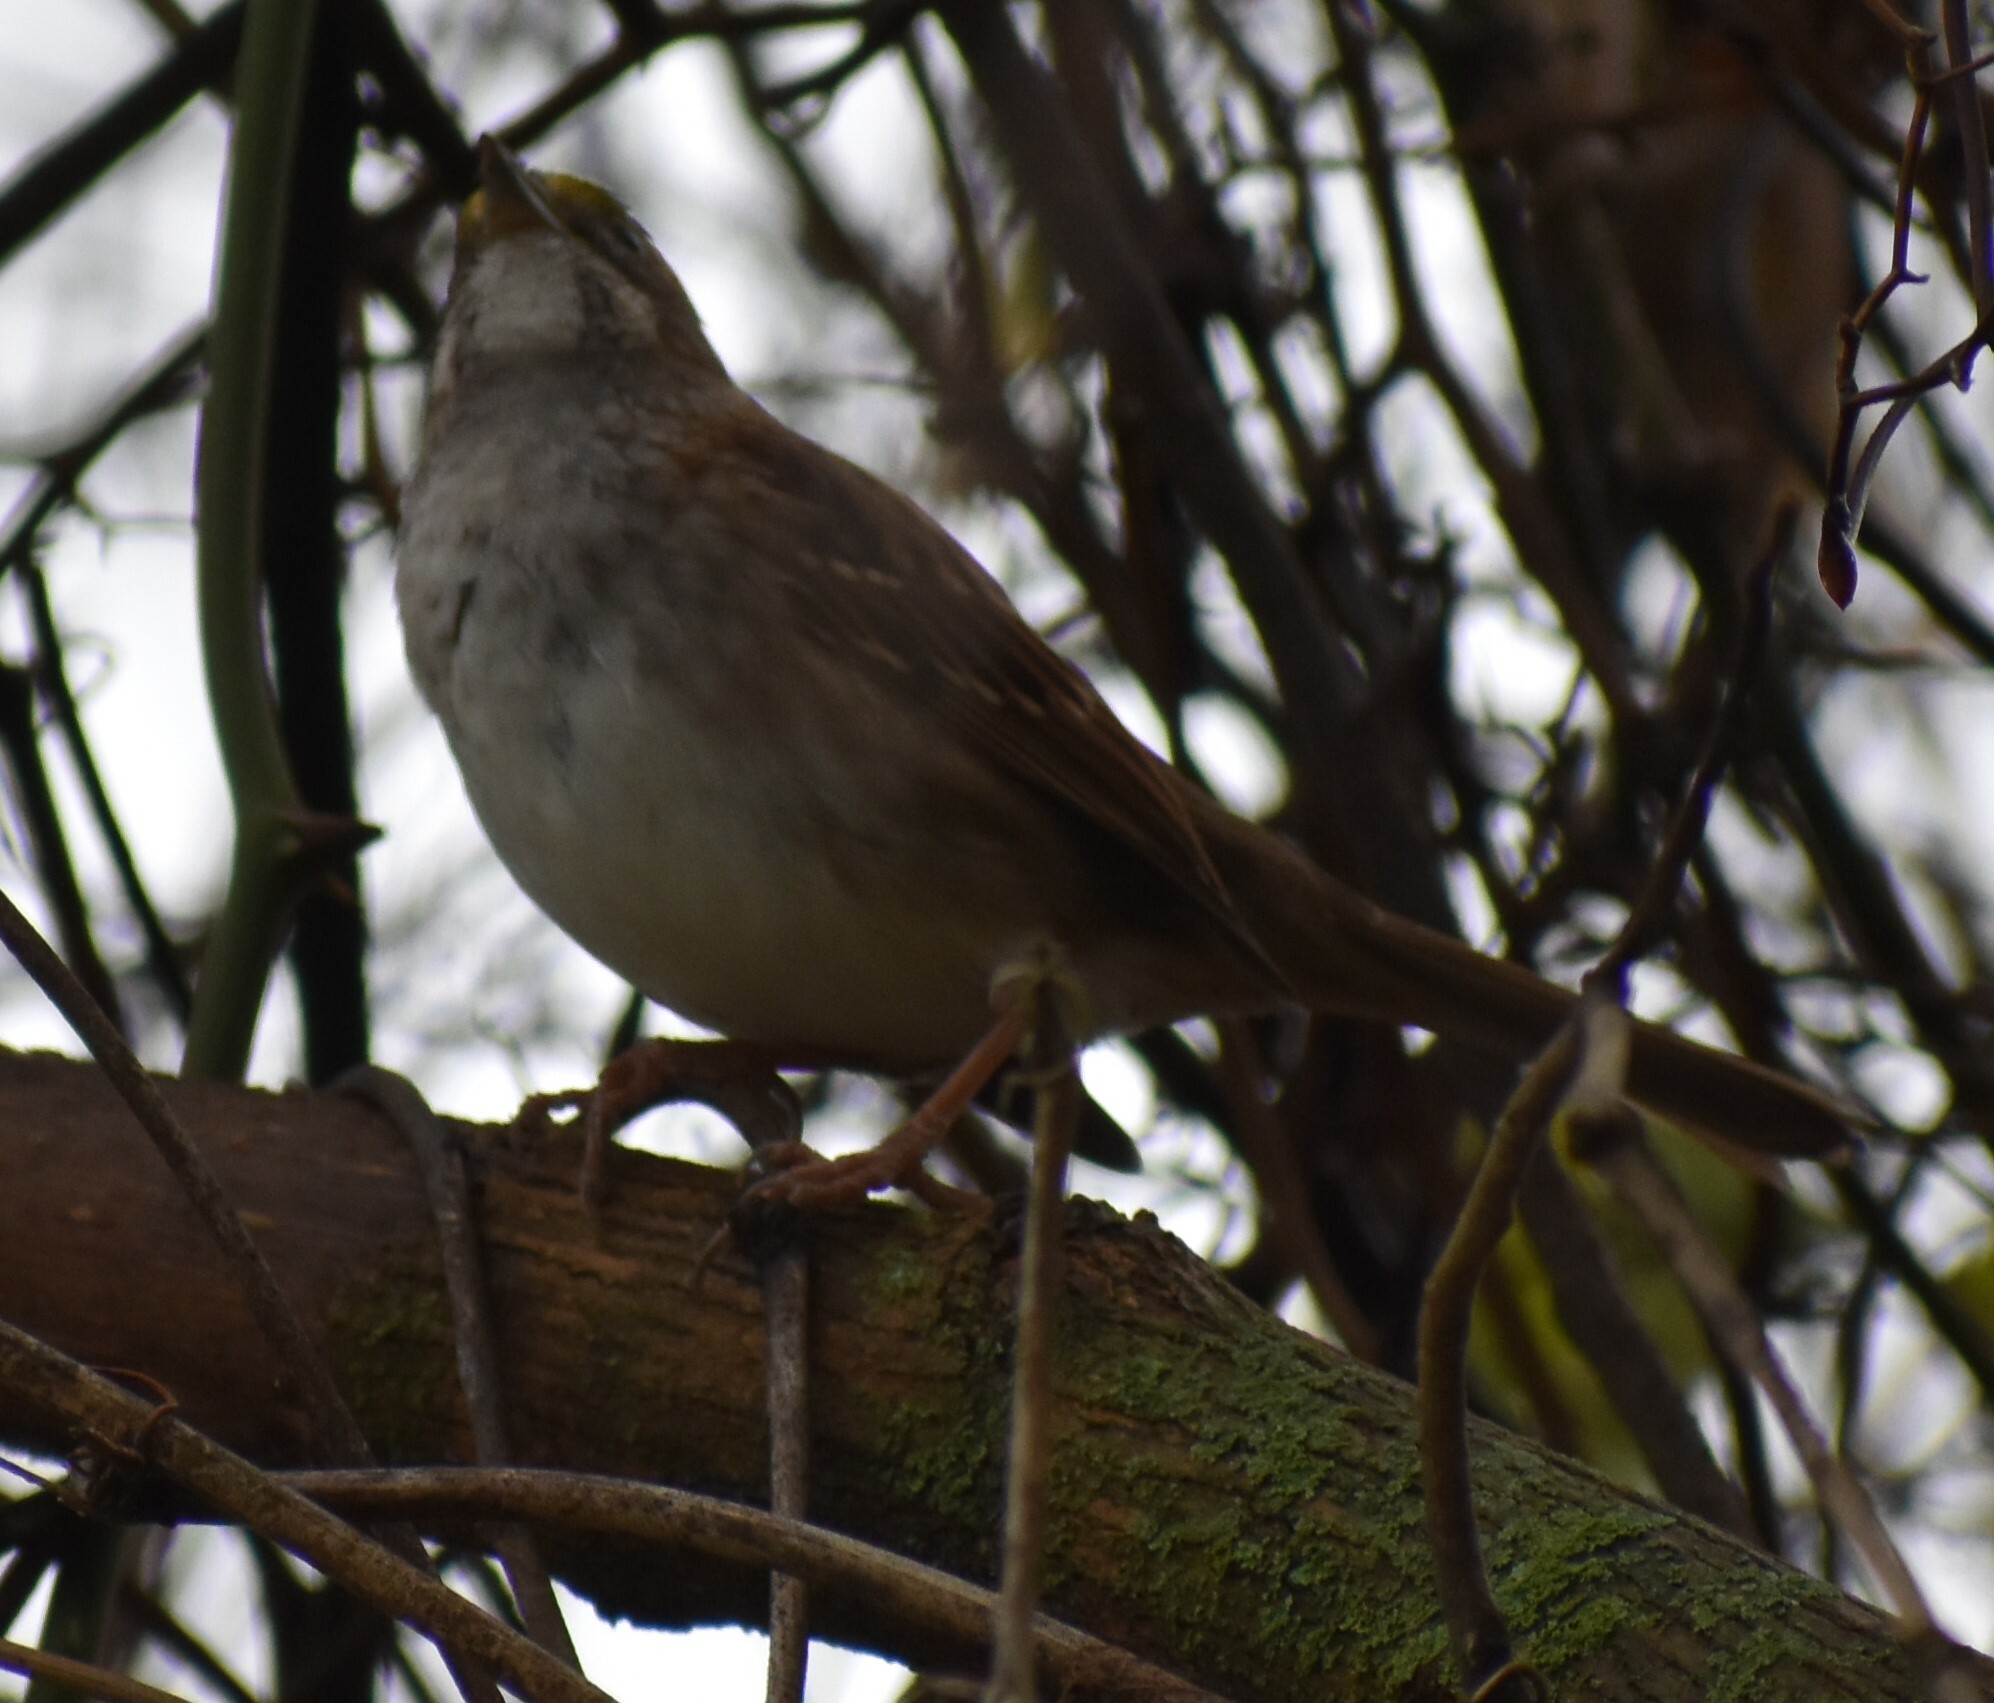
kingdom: Animalia
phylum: Chordata
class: Aves
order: Passeriformes
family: Passerellidae
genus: Zonotrichia
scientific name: Zonotrichia albicollis
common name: White-throated sparrow
